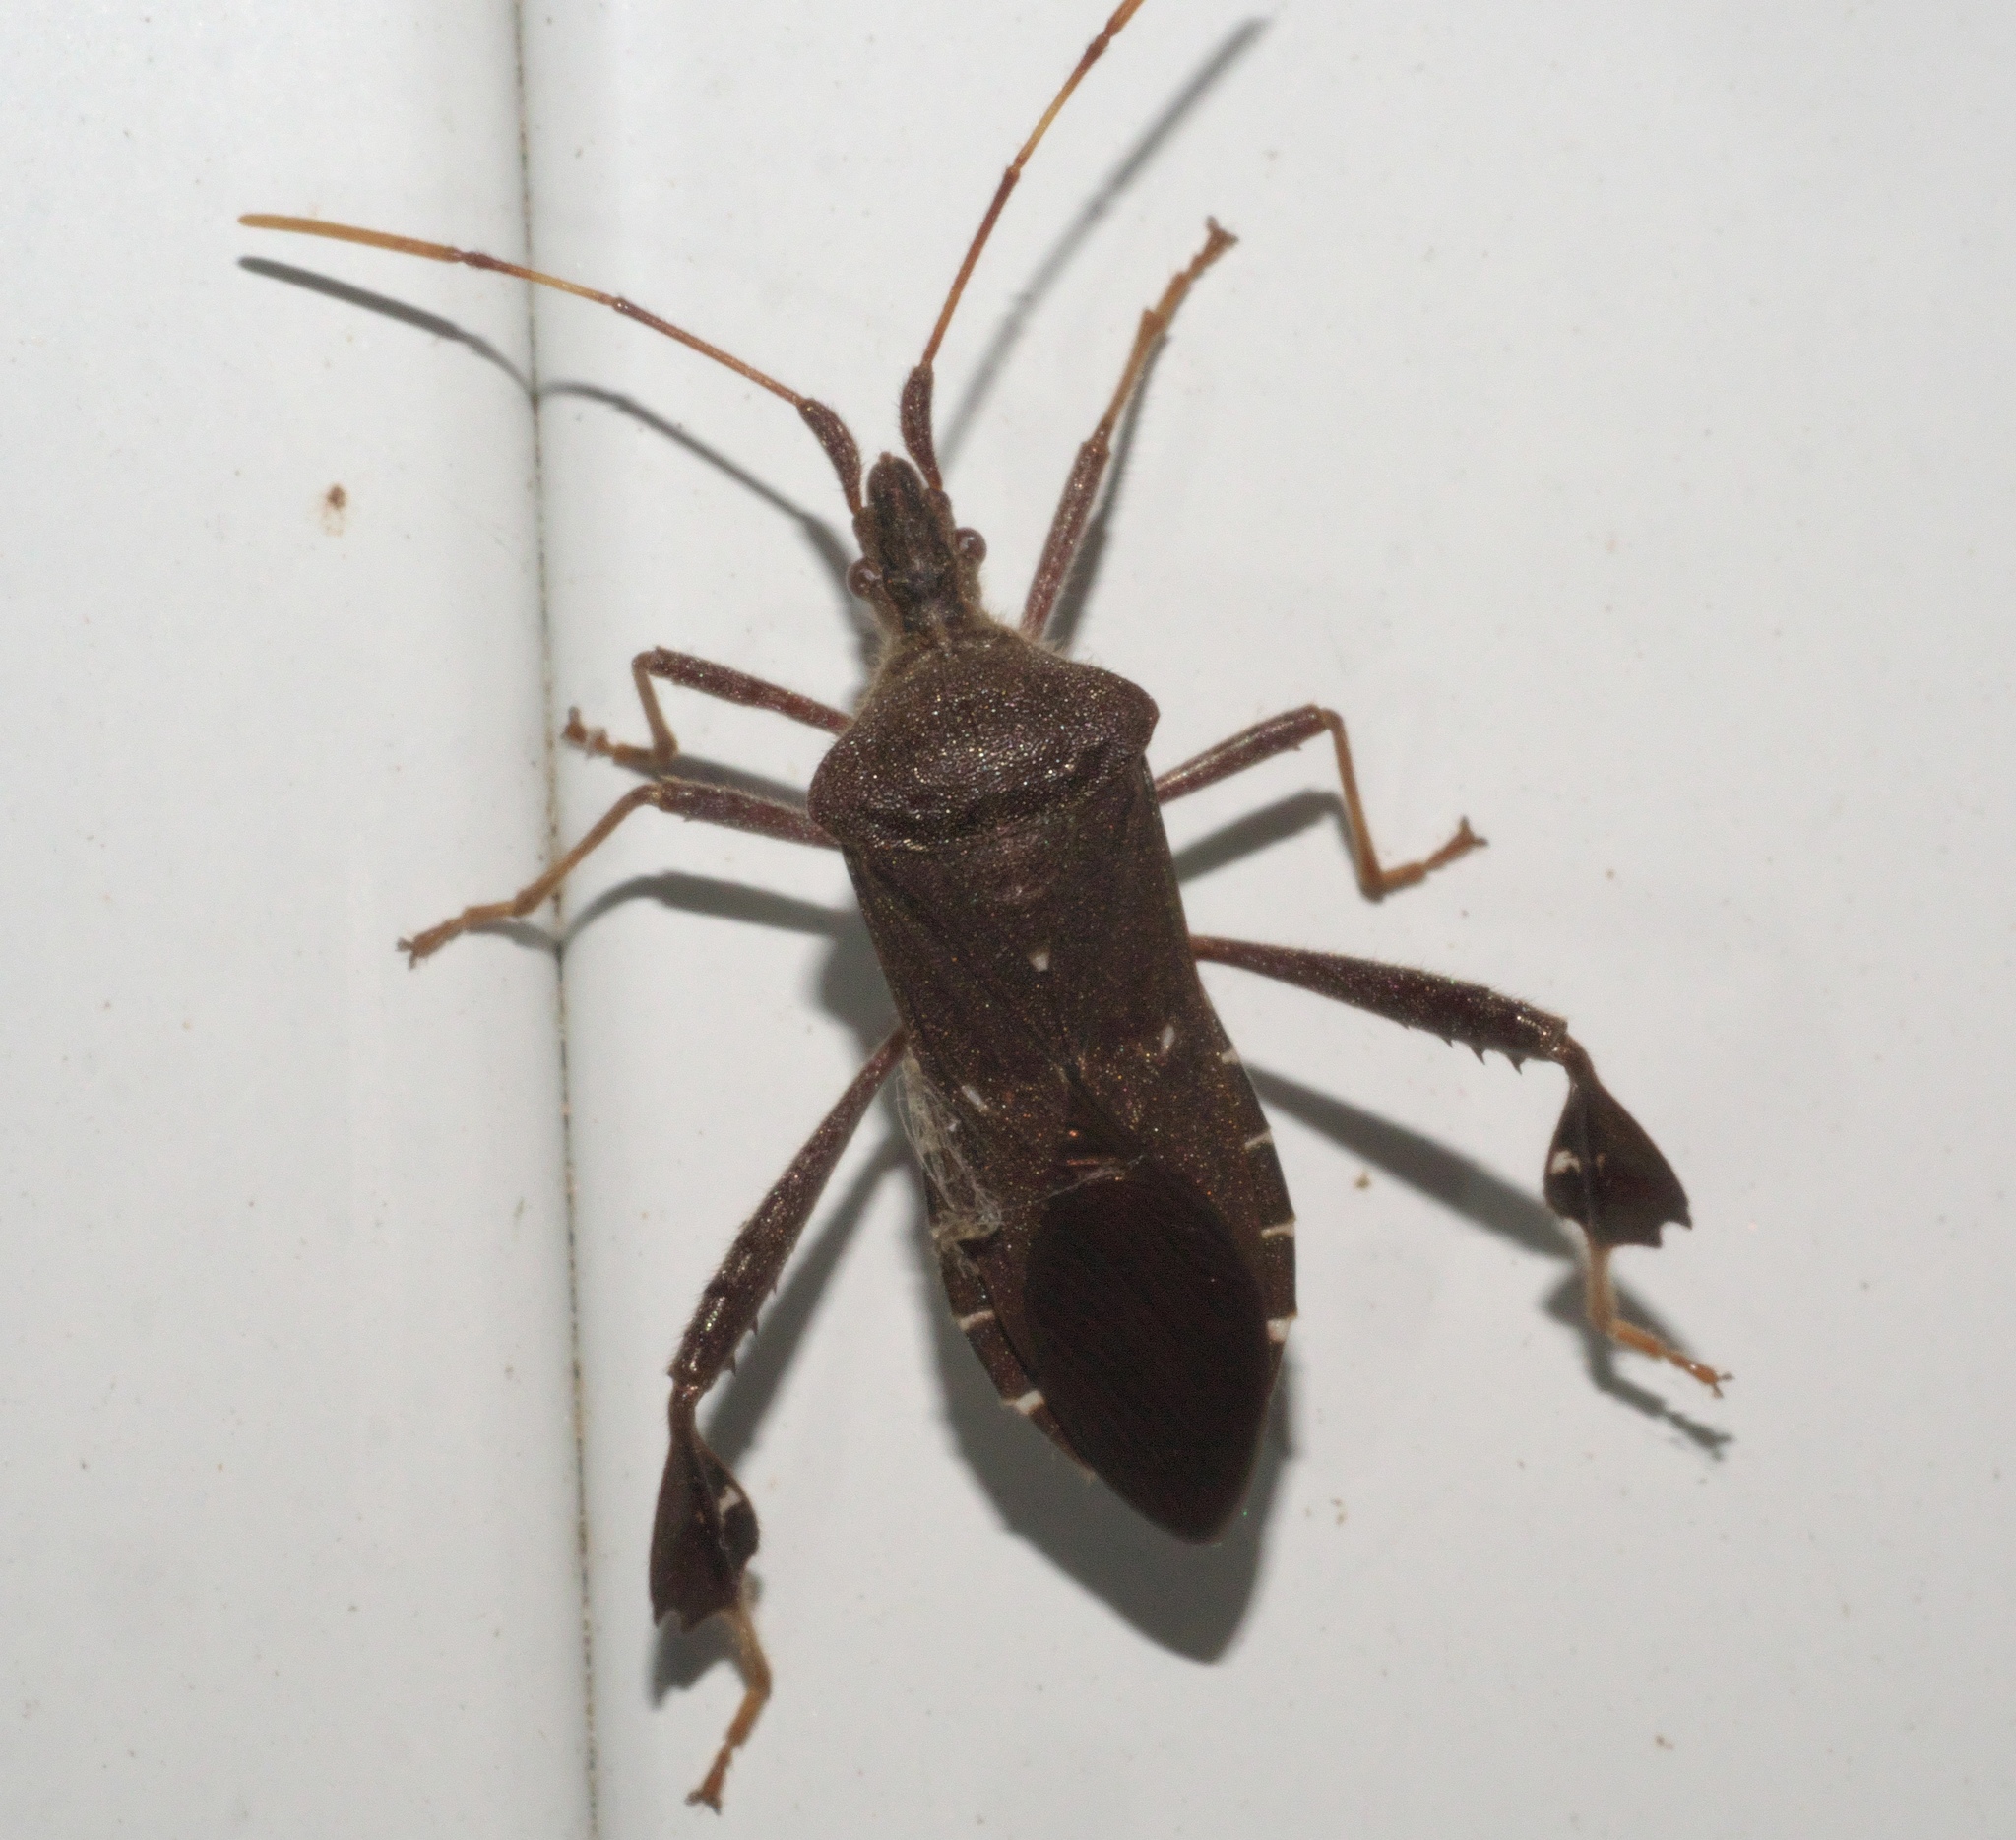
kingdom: Animalia
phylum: Arthropoda
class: Insecta
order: Hemiptera
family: Coreidae
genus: Leptoglossus
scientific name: Leptoglossus oppositus
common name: Northern leaf-footed bug
